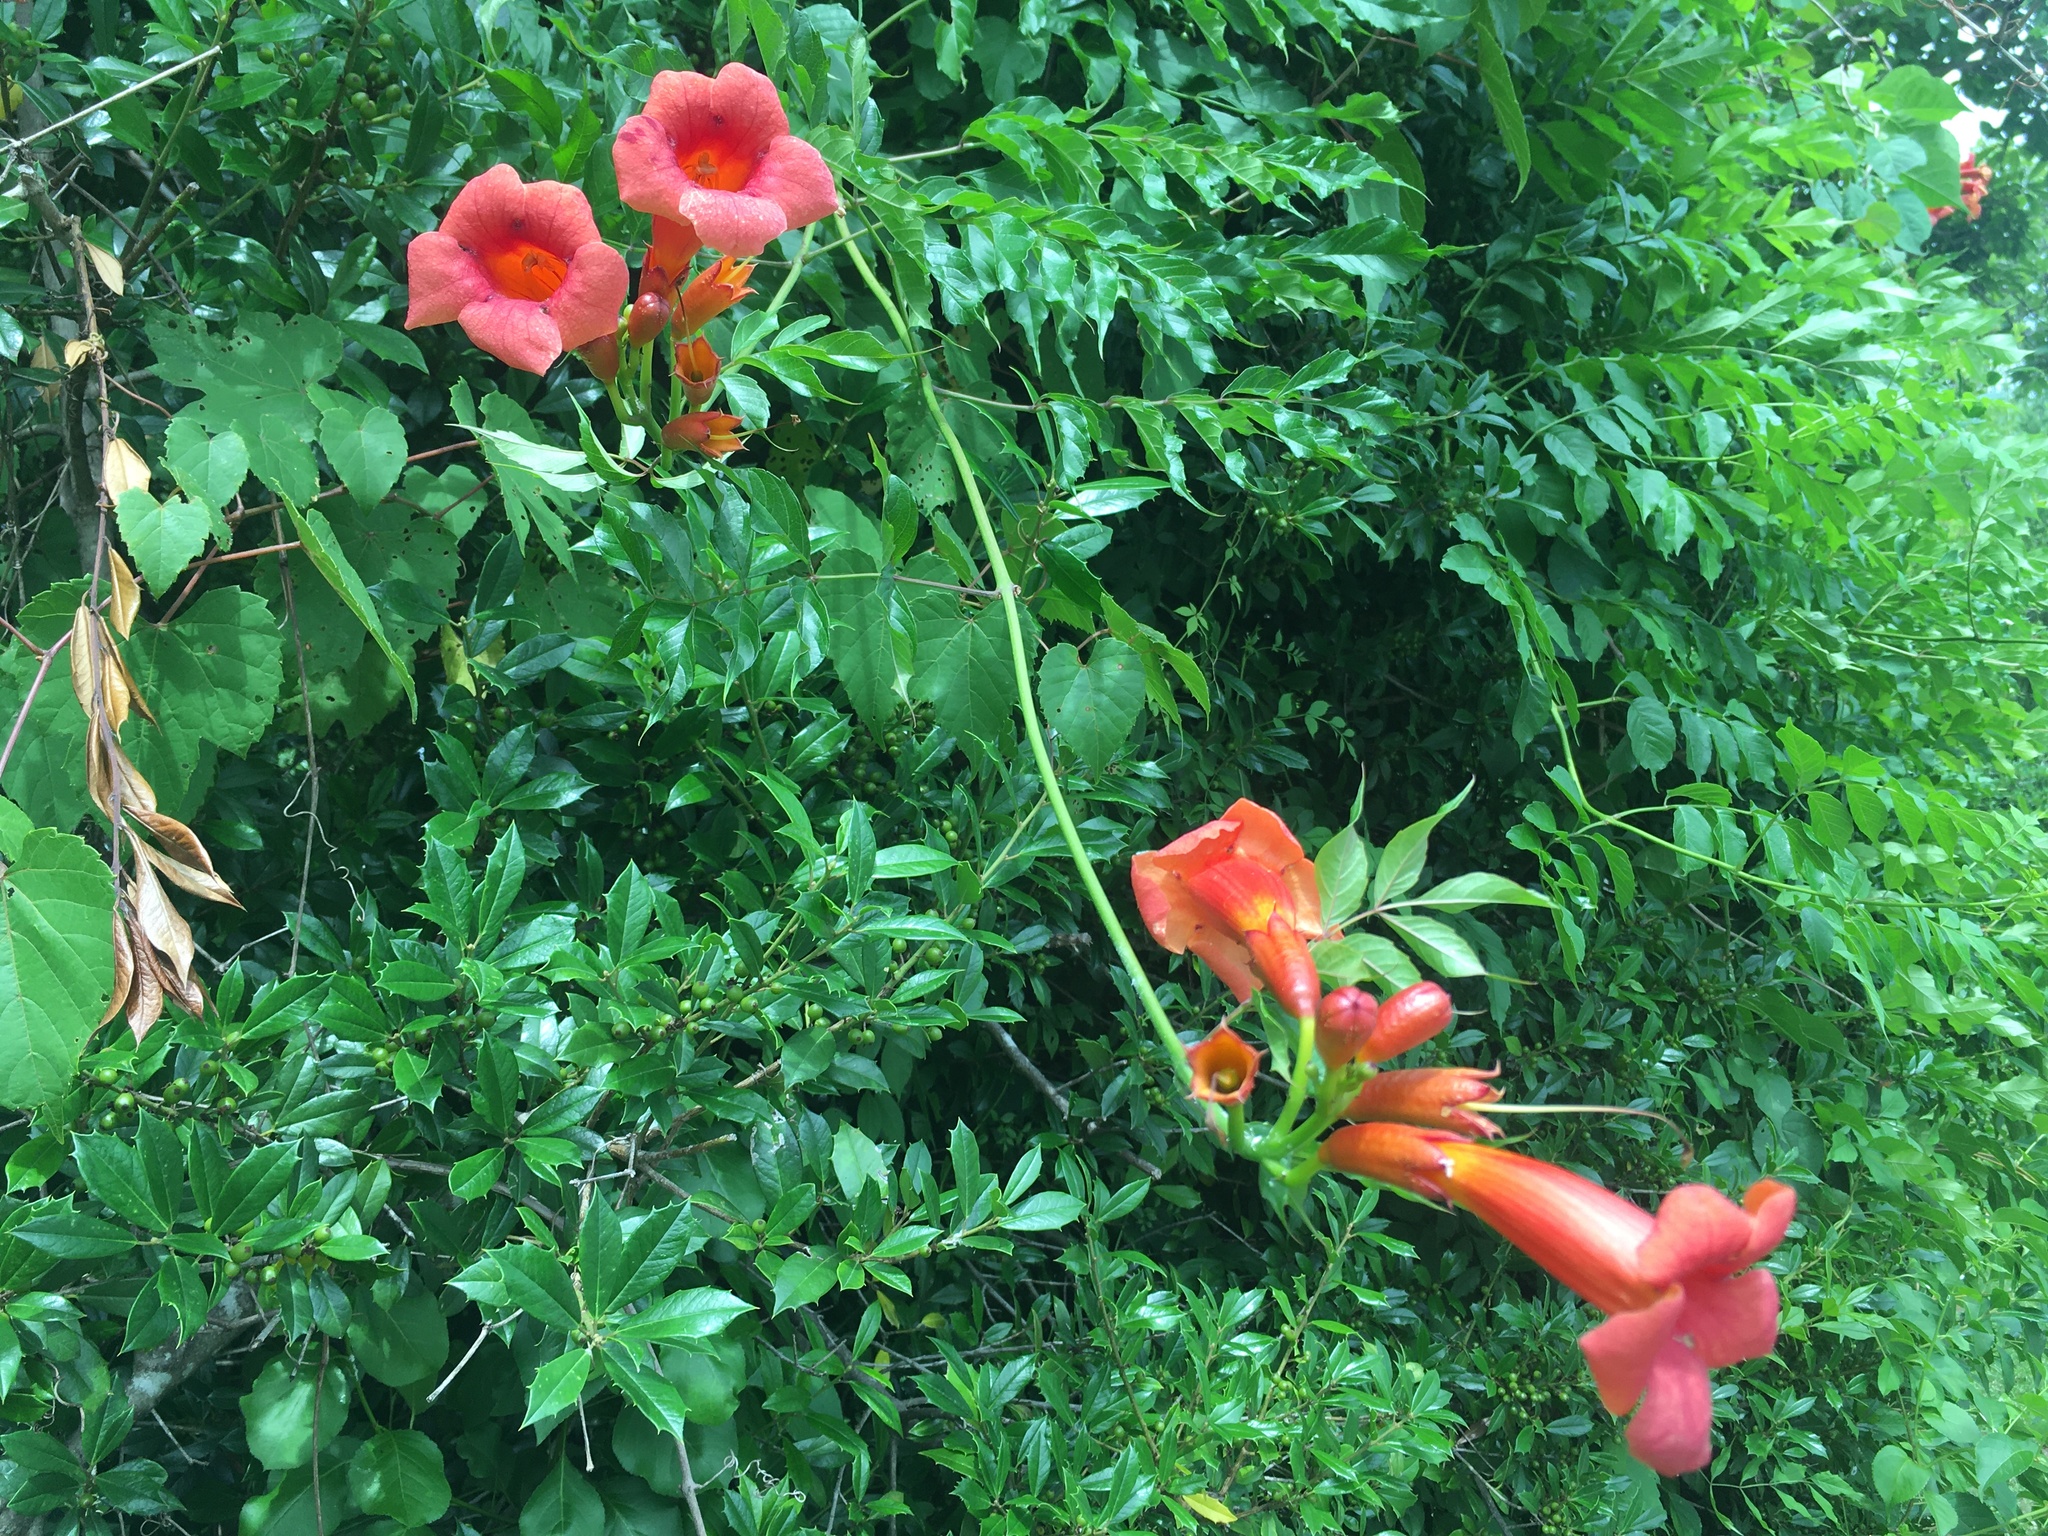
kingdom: Plantae
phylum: Tracheophyta
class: Magnoliopsida
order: Lamiales
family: Bignoniaceae
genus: Campsis
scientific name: Campsis radicans
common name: Trumpet-creeper
